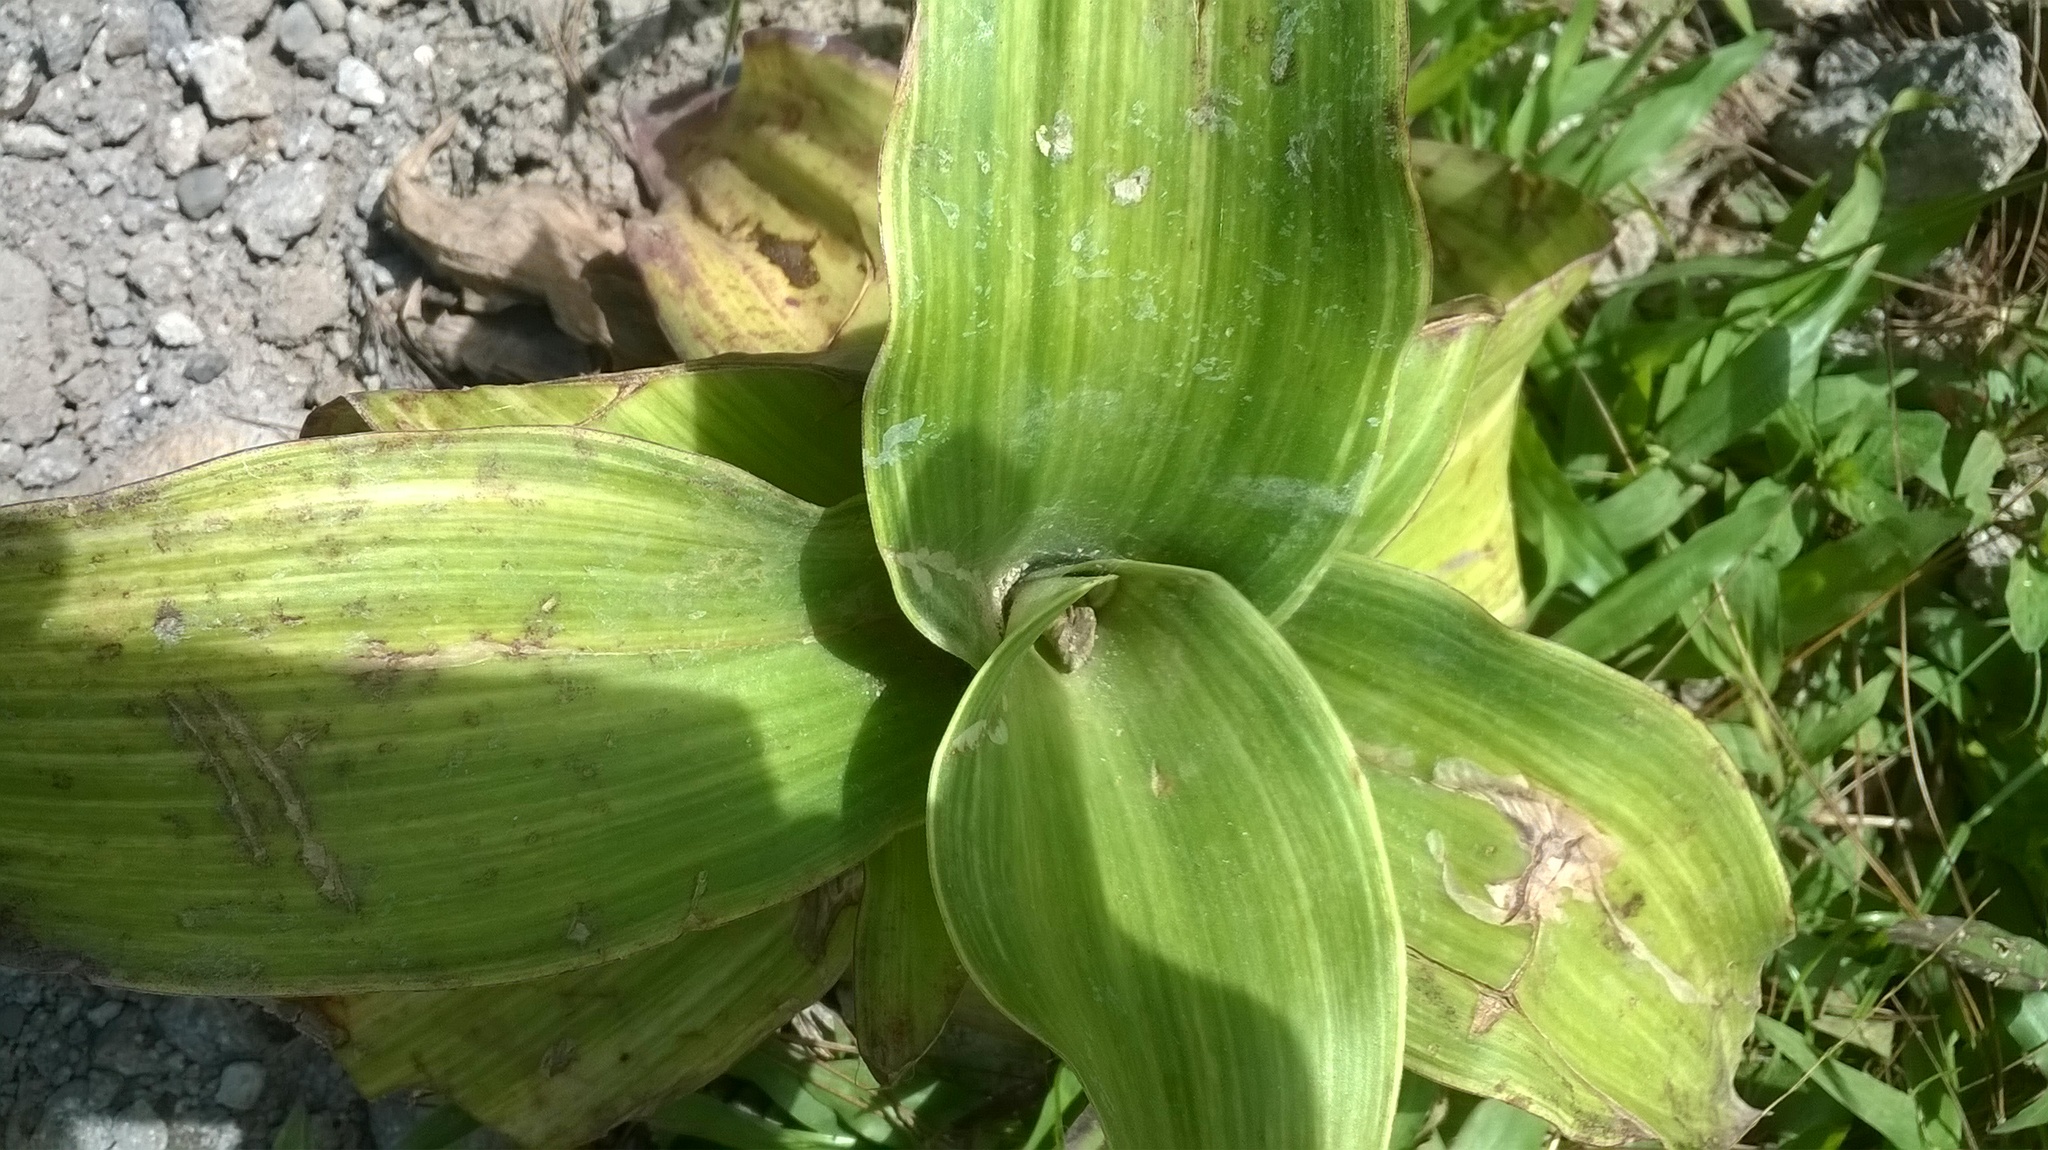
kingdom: Plantae
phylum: Tracheophyta
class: Liliopsida
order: Commelinales
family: Commelinaceae
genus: Callisia
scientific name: Callisia fragrans
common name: Basketplant
